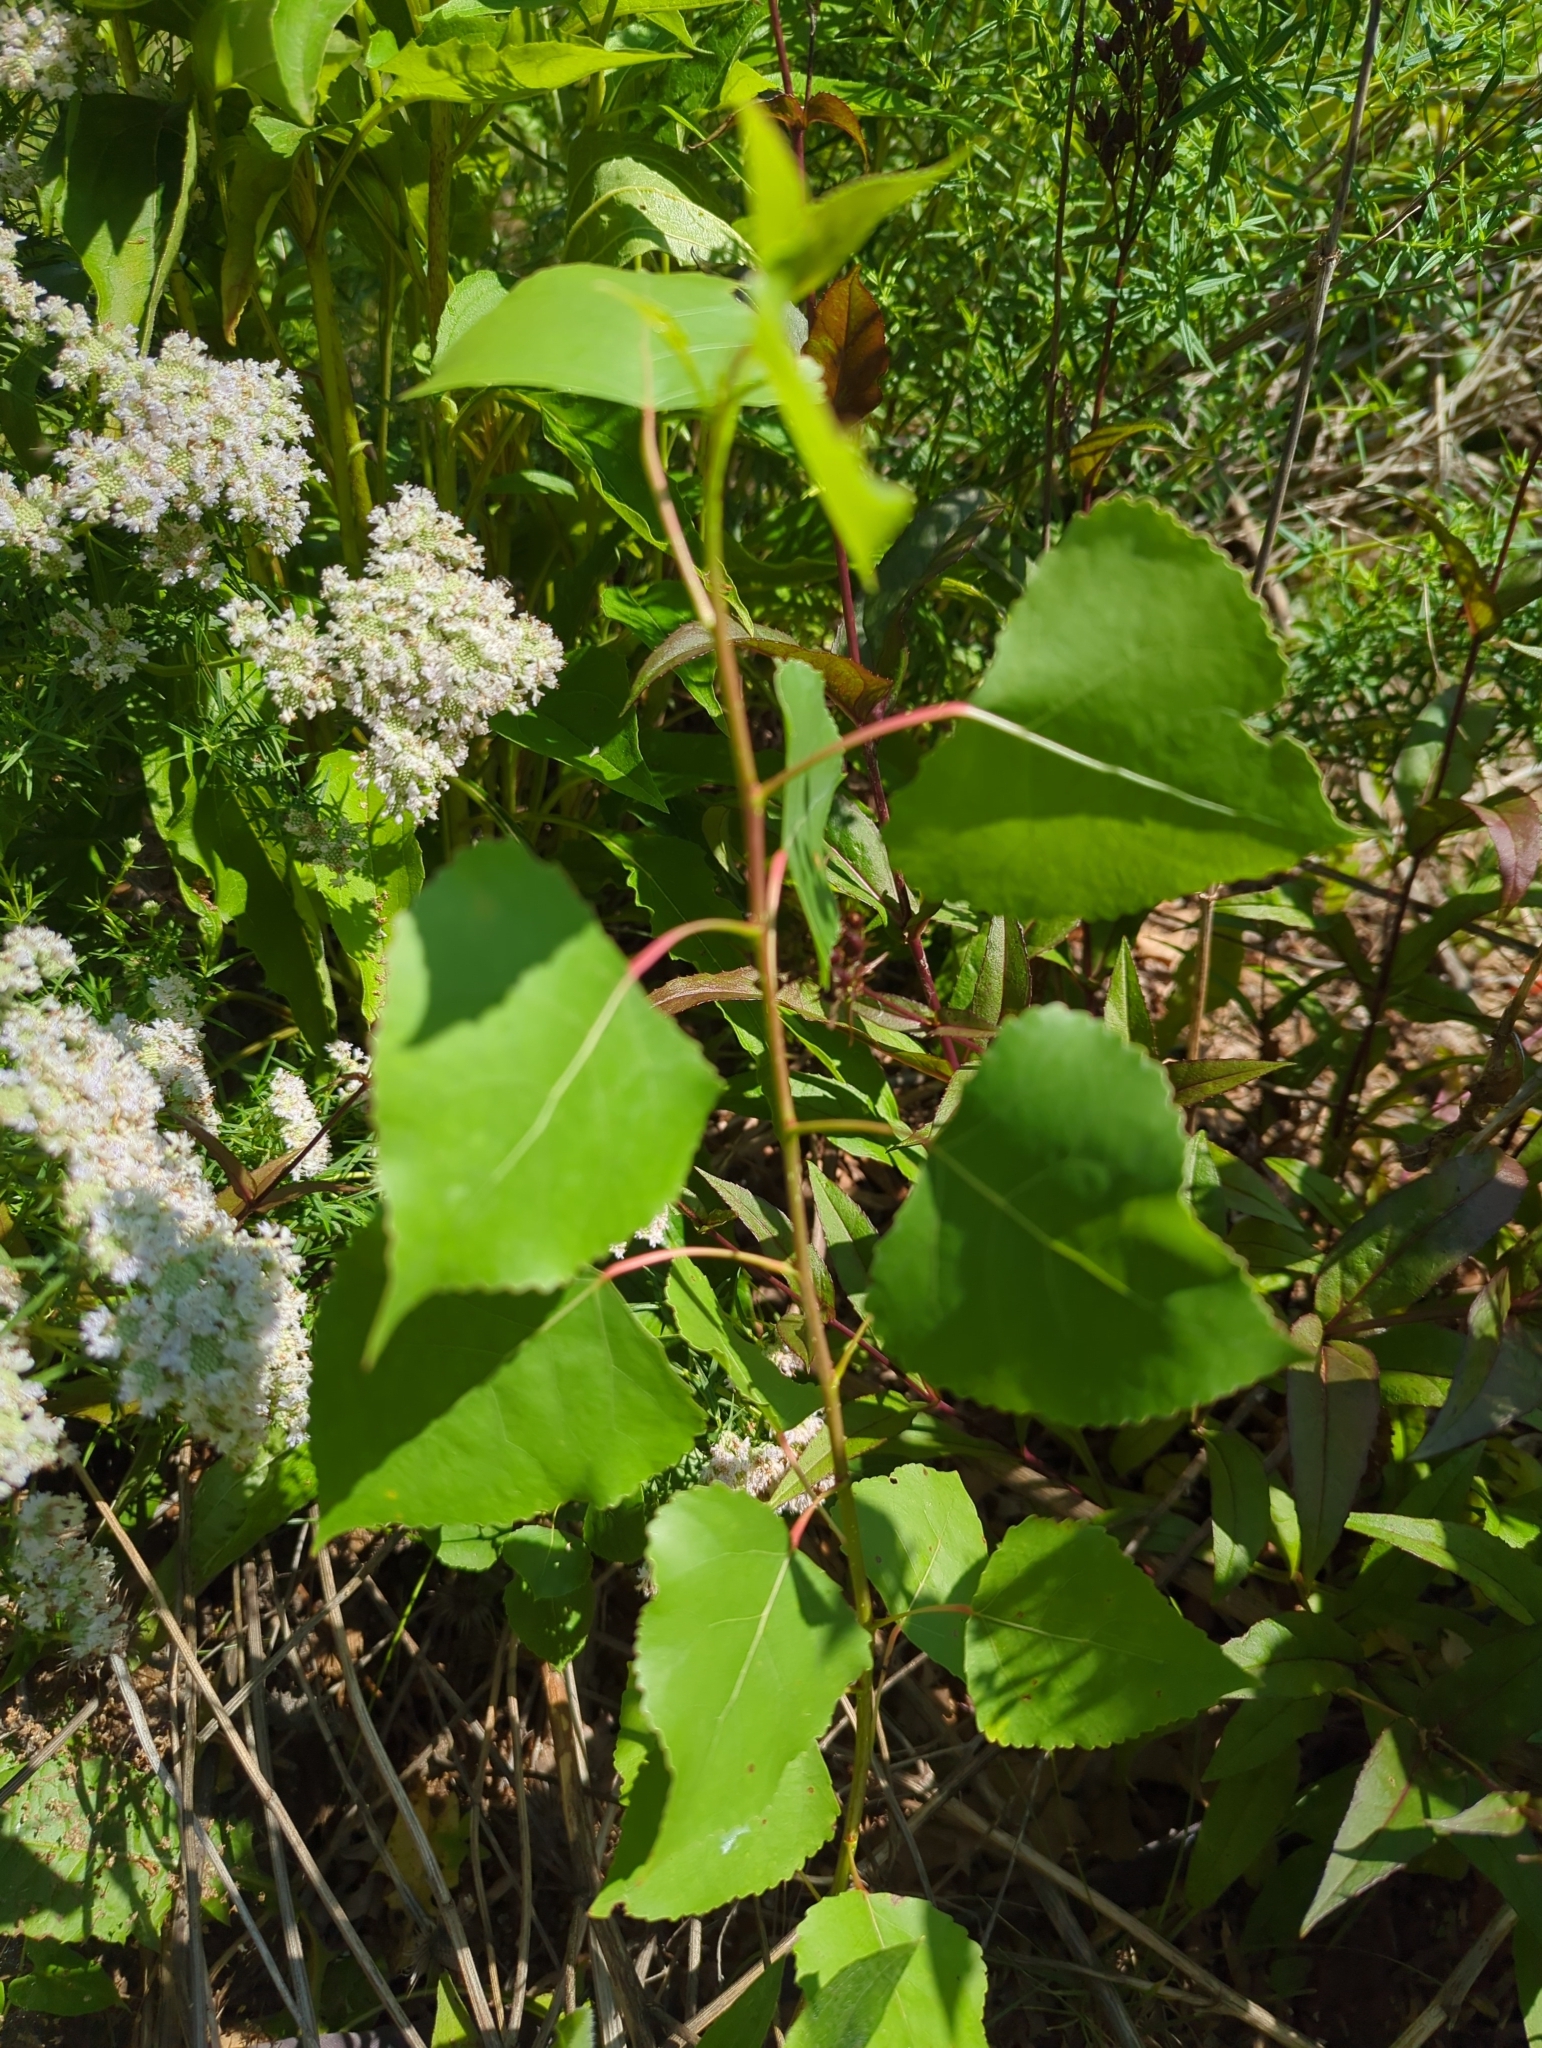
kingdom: Plantae
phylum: Tracheophyta
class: Magnoliopsida
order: Malpighiales
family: Salicaceae
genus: Populus
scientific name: Populus deltoides
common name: Eastern cottonwood
